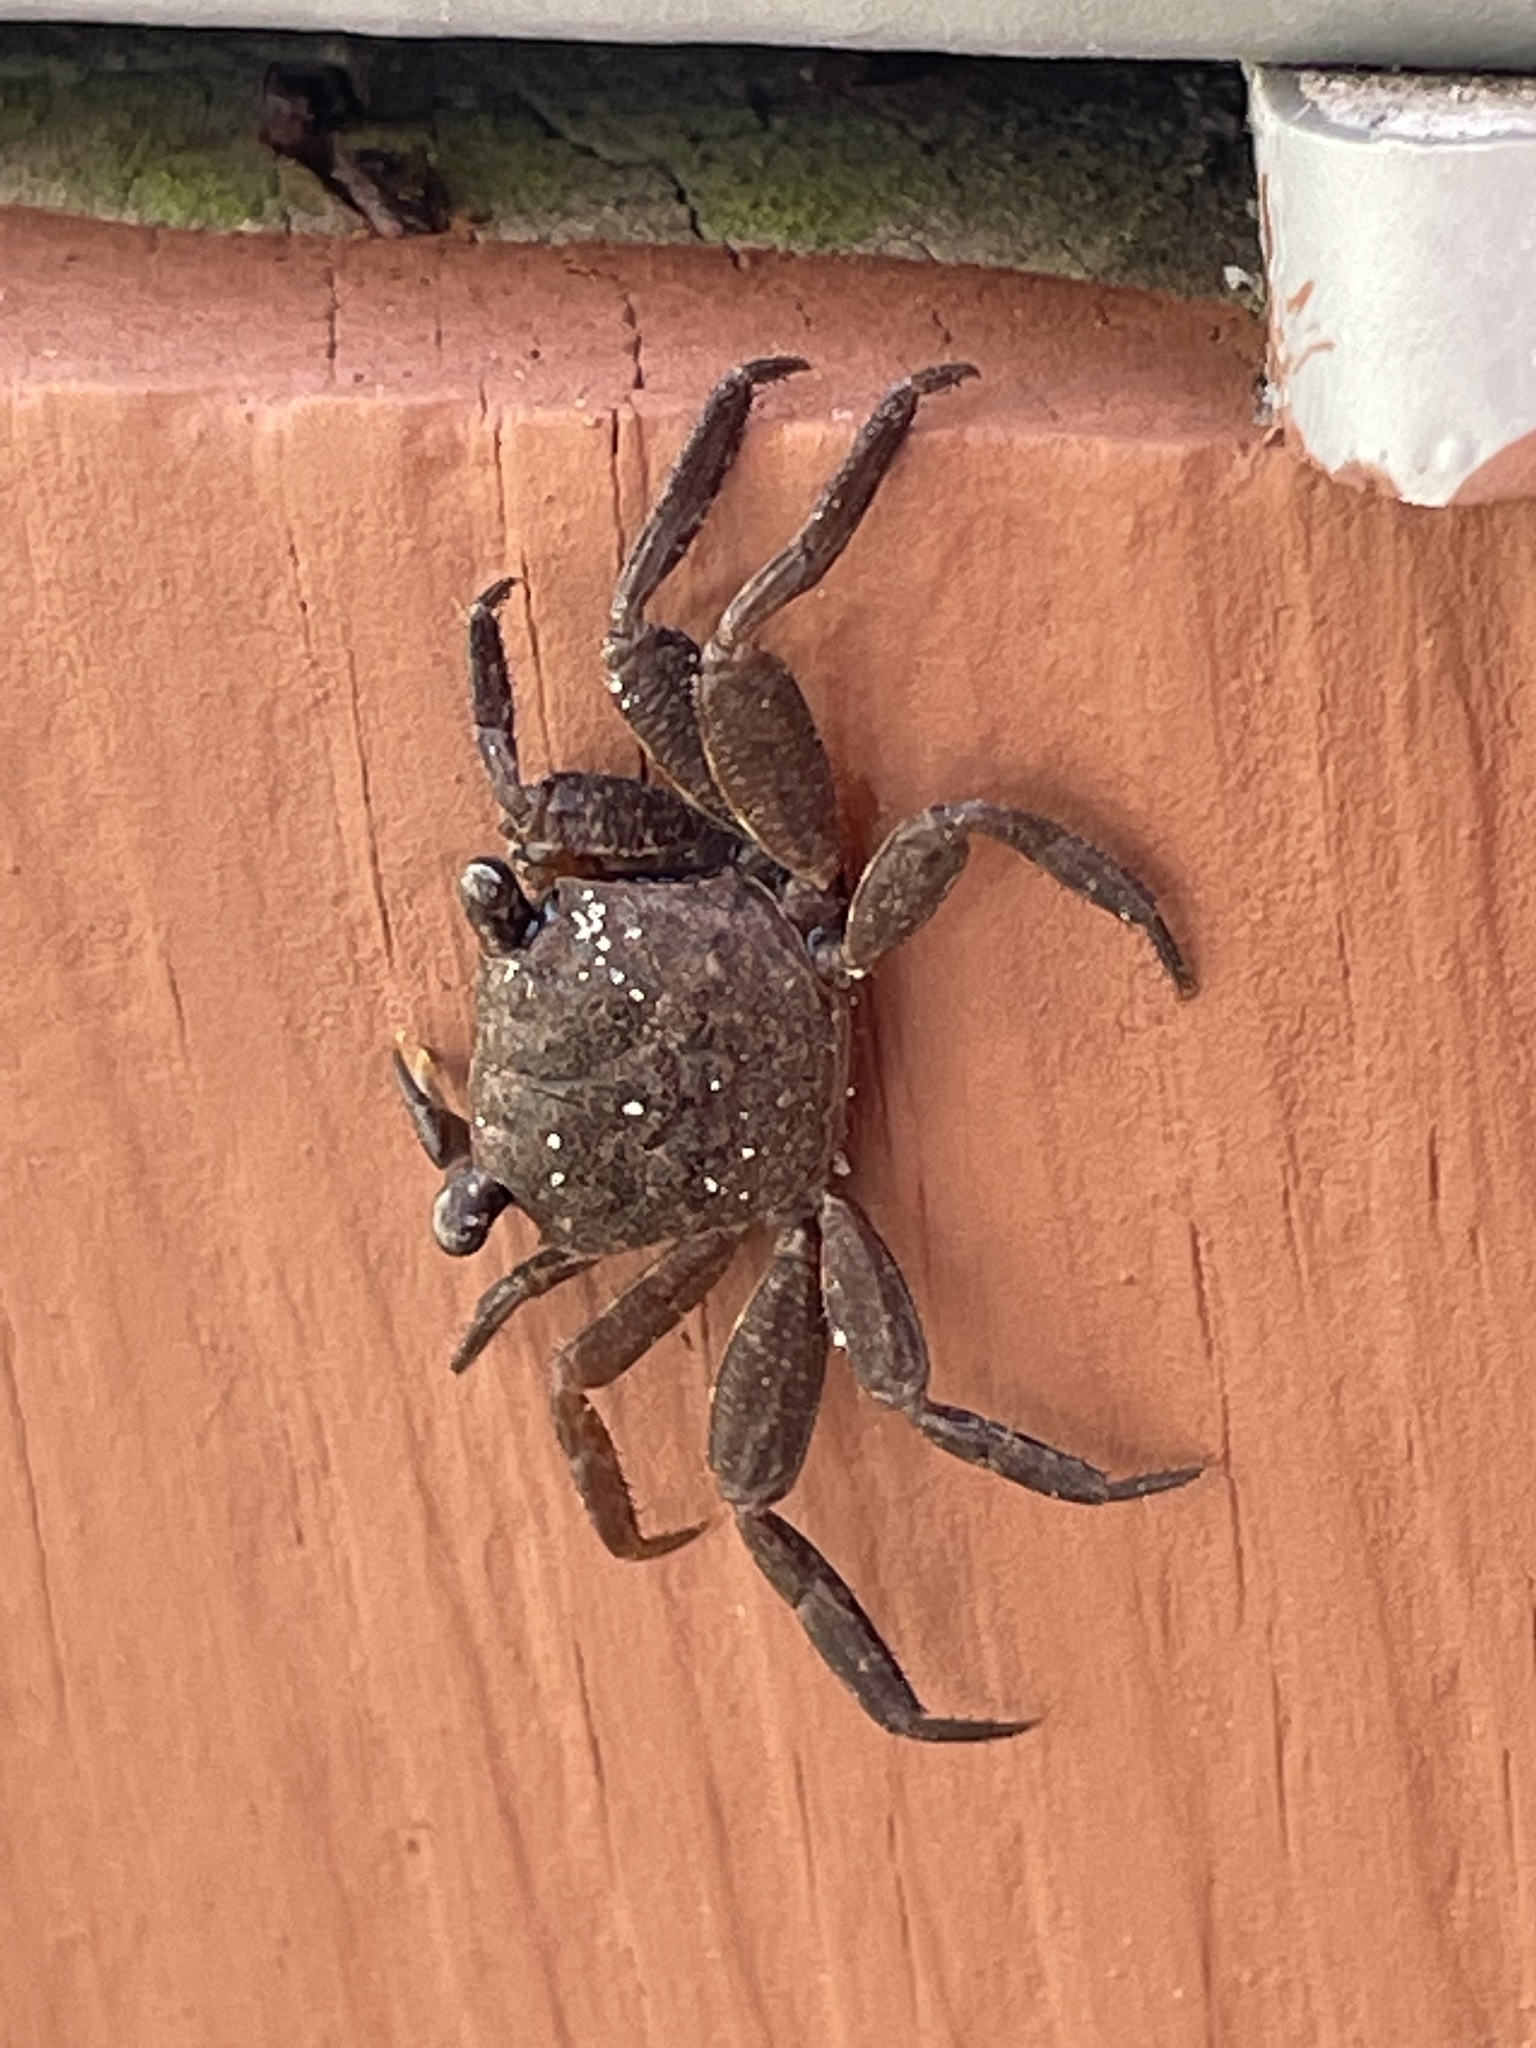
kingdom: Animalia
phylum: Arthropoda
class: Malacostraca
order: Decapoda
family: Sesarmidae
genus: Armases
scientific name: Armases cinereum
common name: Squareback marsh crab
